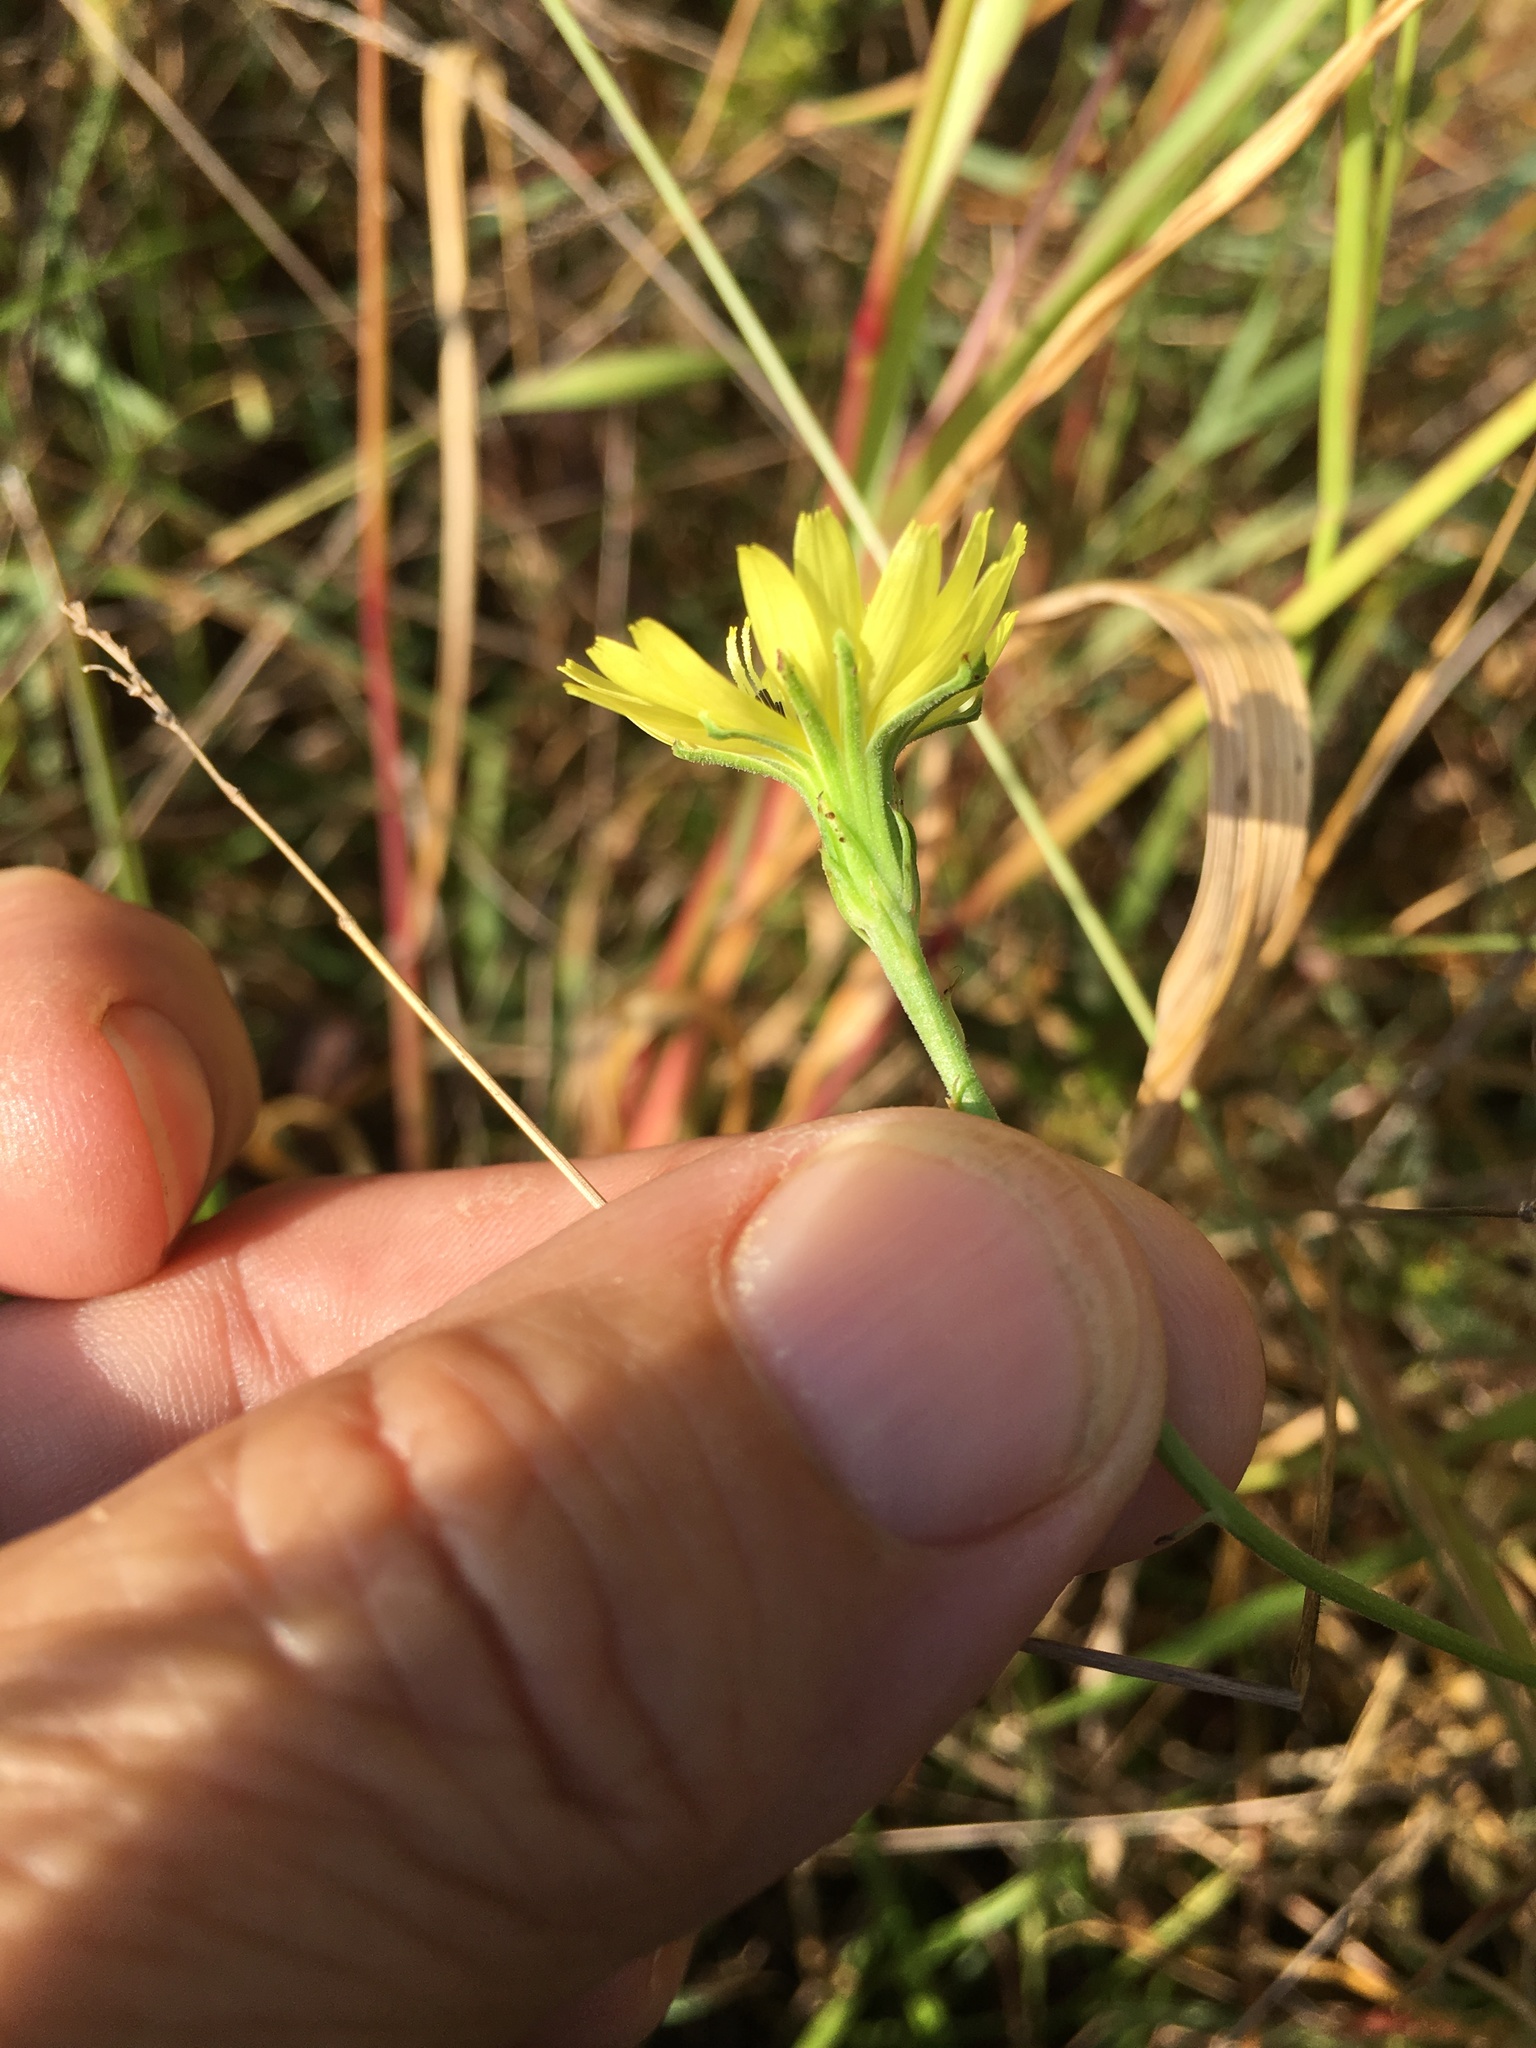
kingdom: Plantae
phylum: Tracheophyta
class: Magnoliopsida
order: Asterales
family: Asteraceae
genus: Pyrrhopappus
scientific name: Pyrrhopappus carolinianus
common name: Carolina desert-chicory
